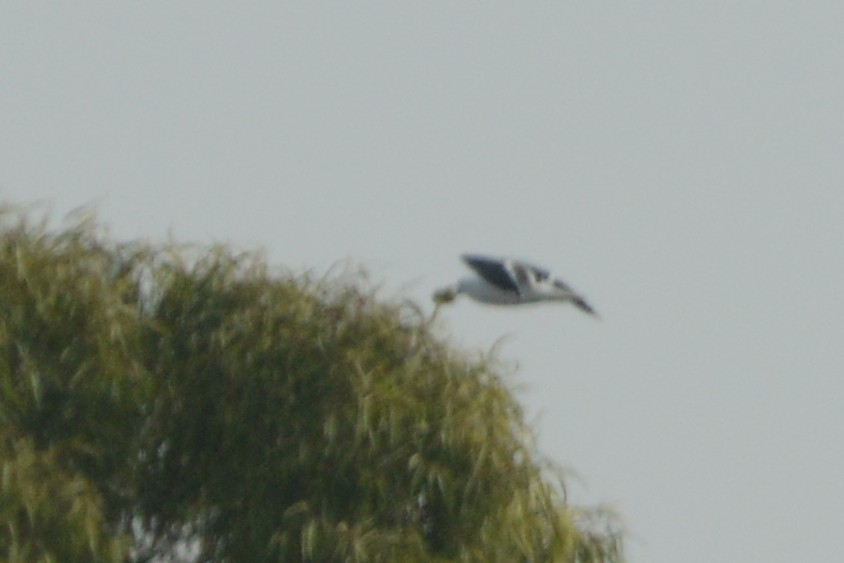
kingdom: Animalia
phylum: Chordata
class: Aves
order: Charadriiformes
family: Laridae
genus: Larus
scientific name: Larus occidentalis
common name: Western gull
